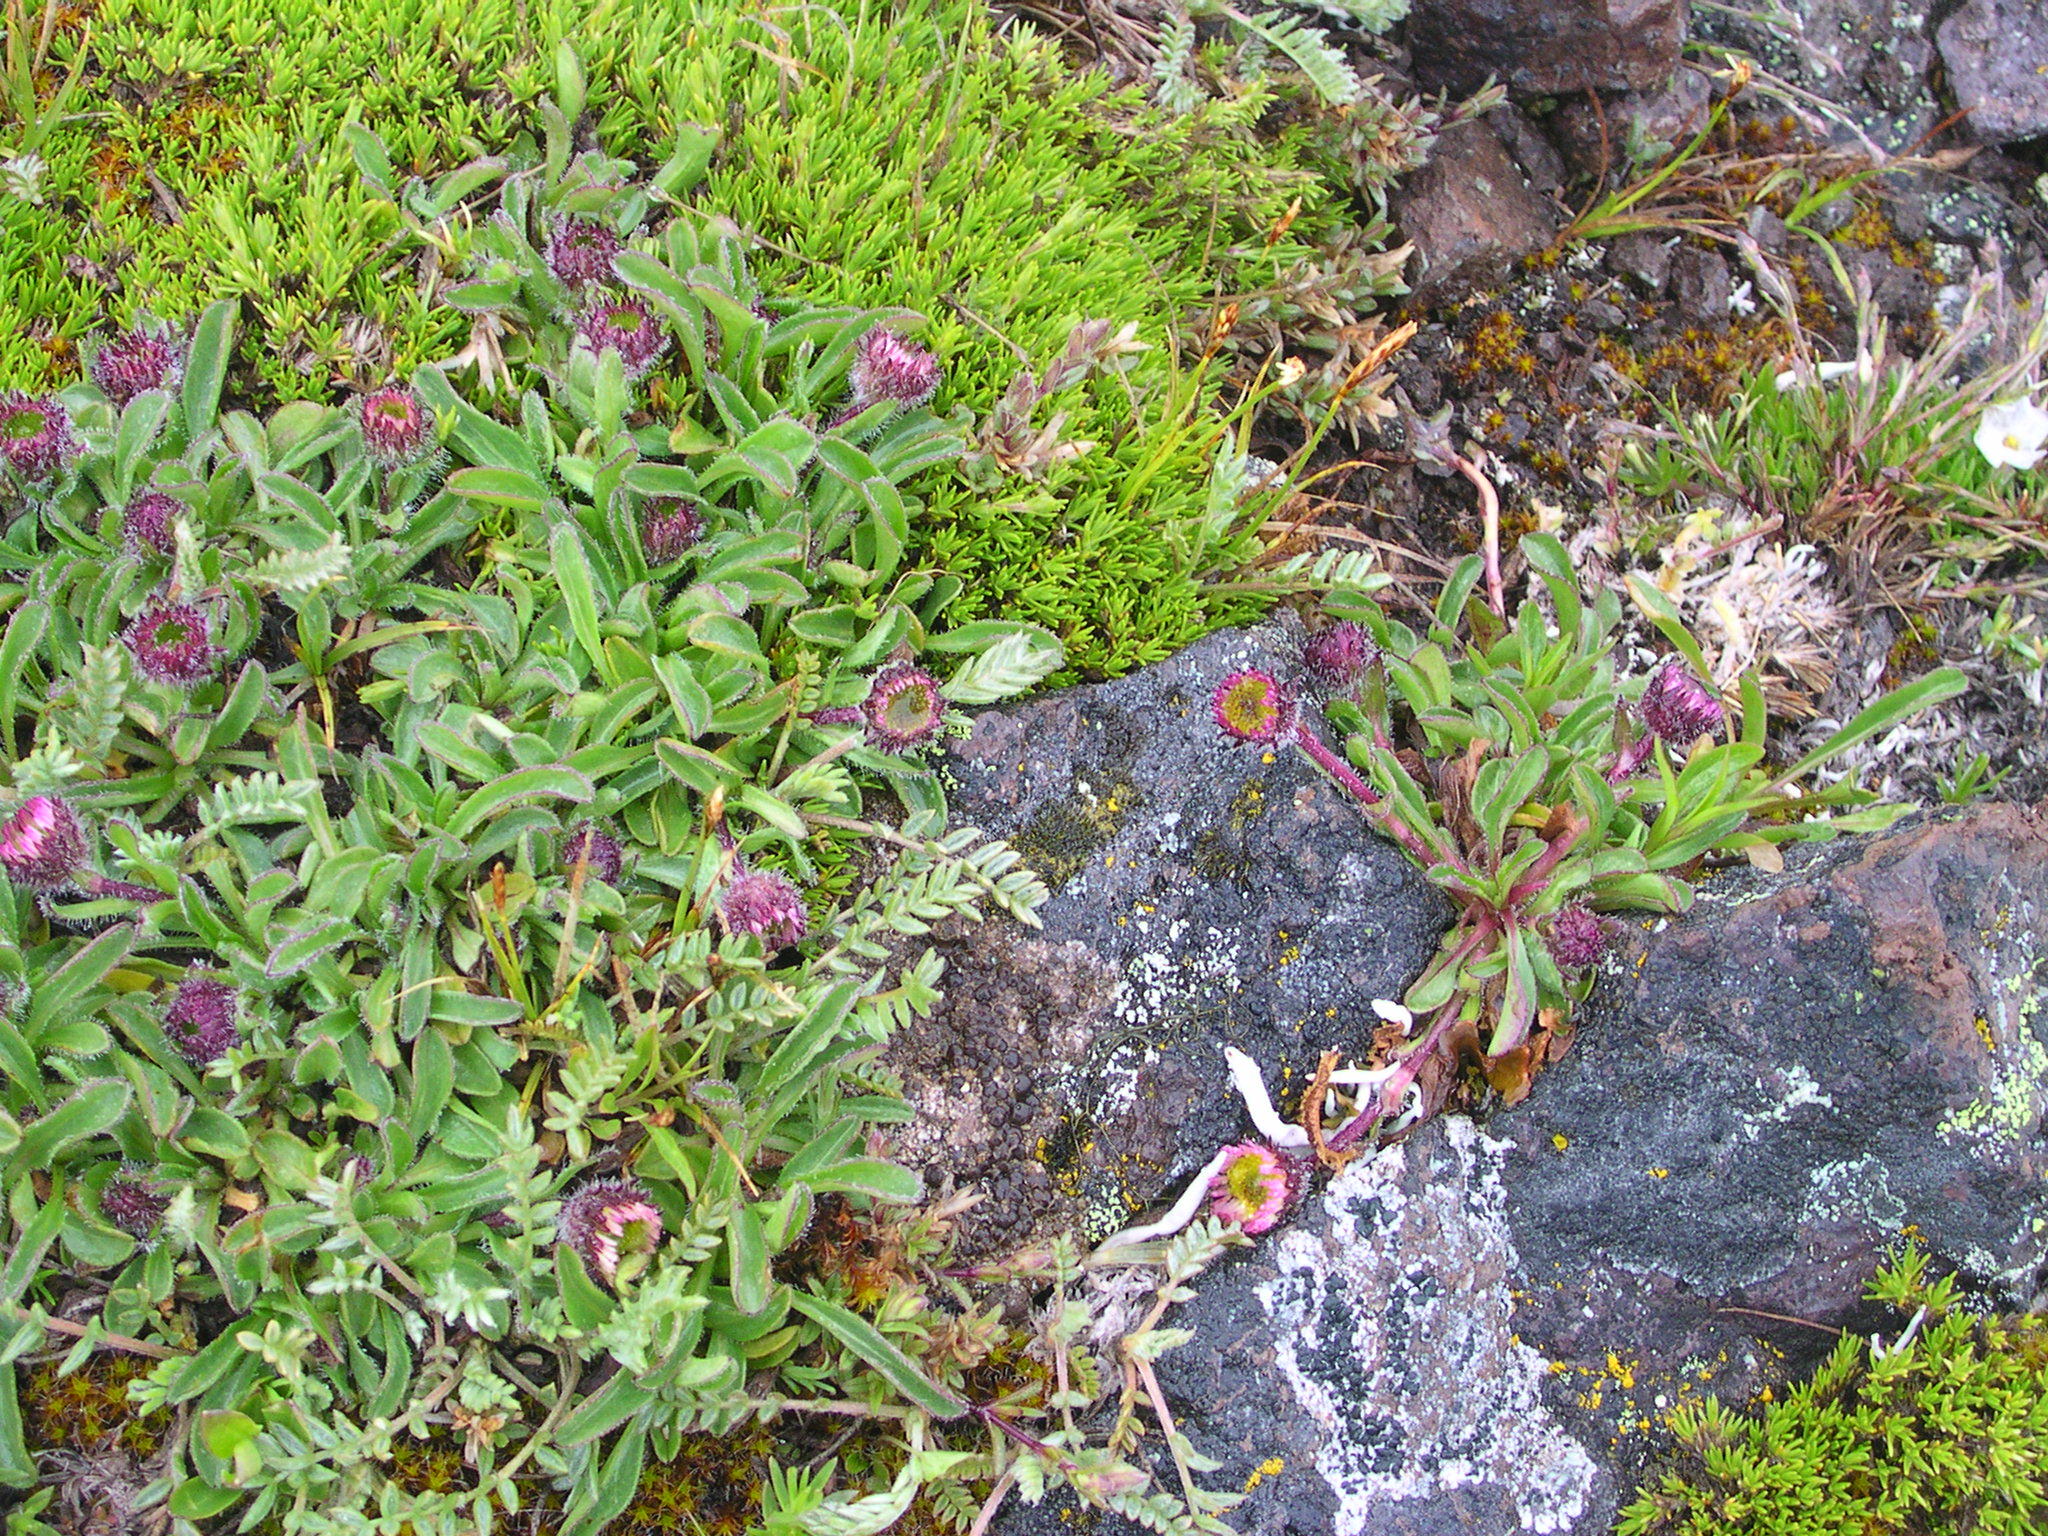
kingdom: Plantae
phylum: Tracheophyta
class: Magnoliopsida
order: Asterales
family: Asteraceae
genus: Erigeron
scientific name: Erigeron flettii
